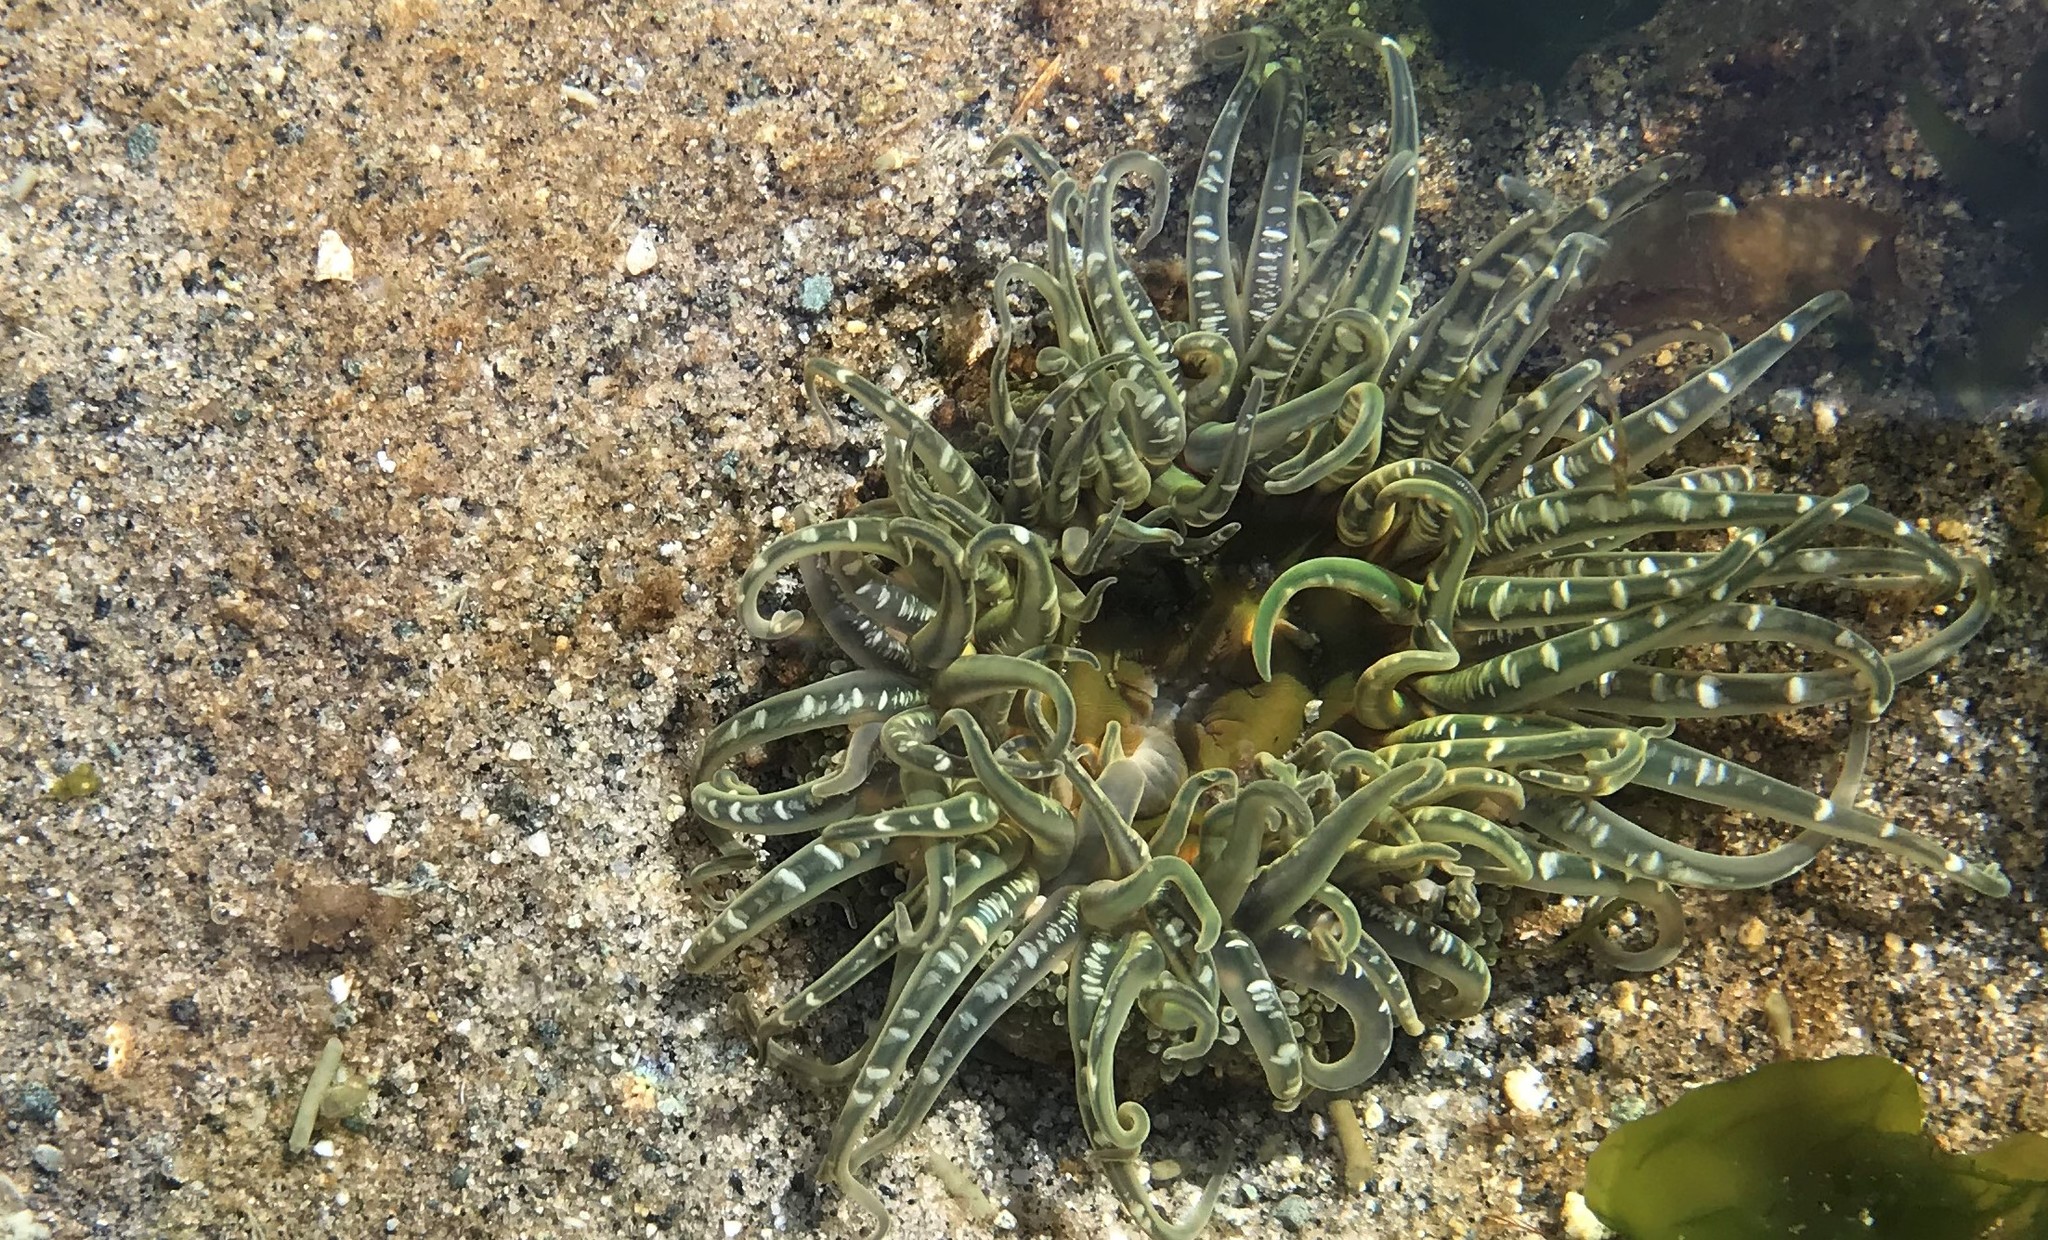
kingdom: Animalia
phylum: Cnidaria
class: Anthozoa
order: Actiniaria
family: Actiniidae
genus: Anthopleura
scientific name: Anthopleura artemisia
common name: Buried sea anemone
